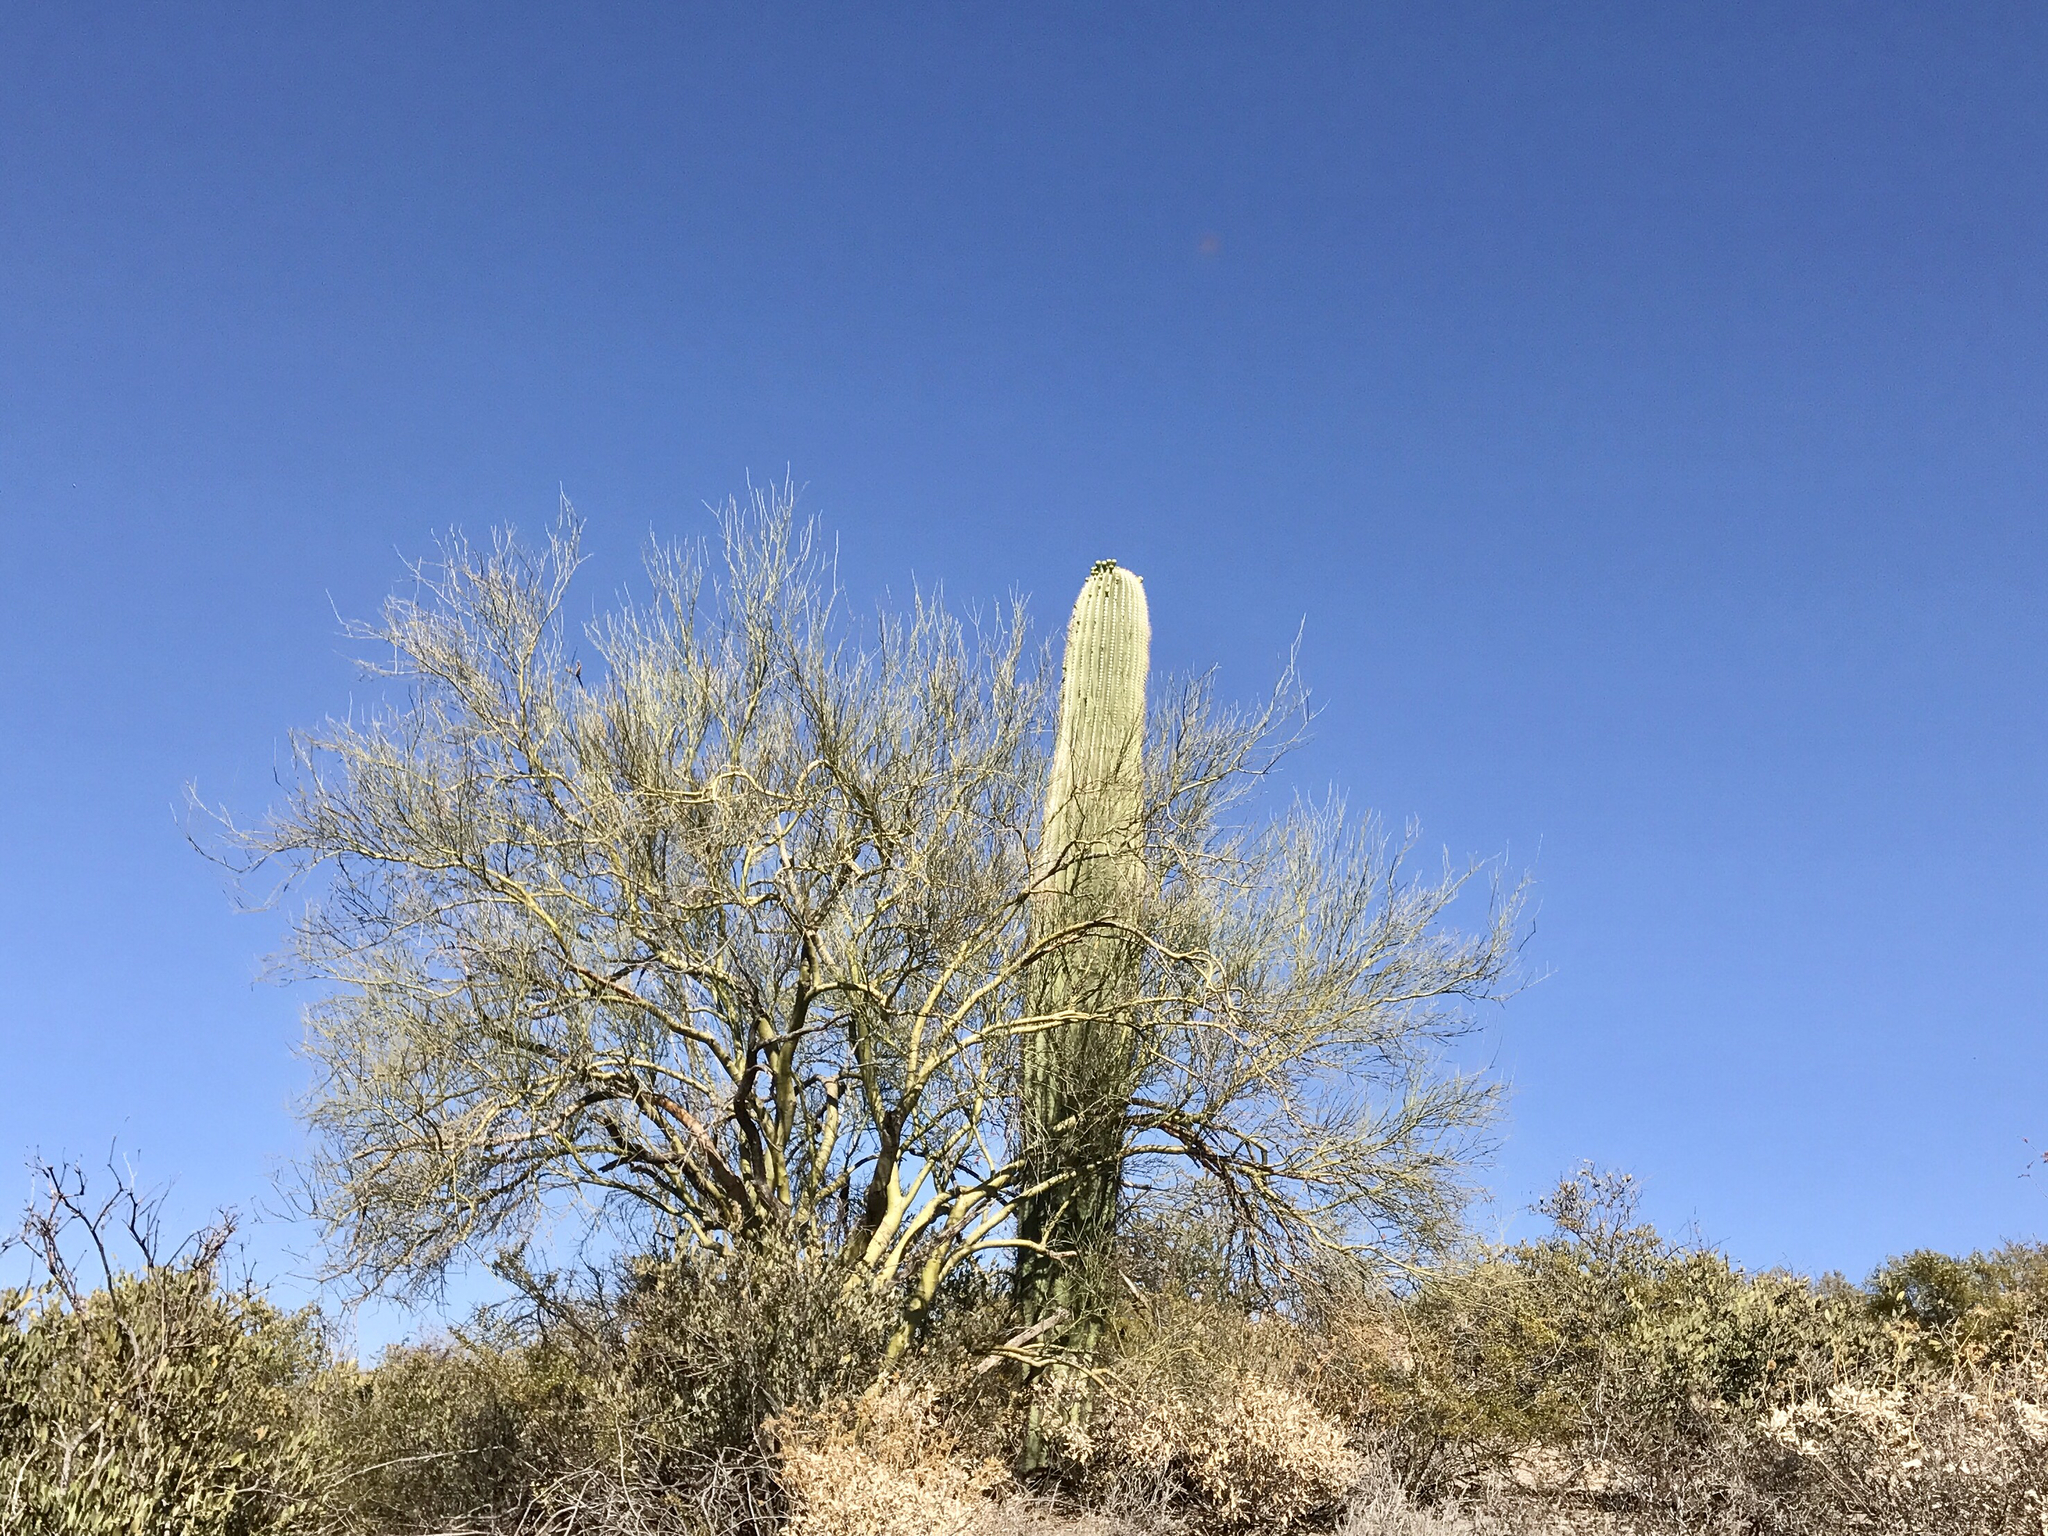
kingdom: Plantae
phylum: Tracheophyta
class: Magnoliopsida
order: Fabales
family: Fabaceae
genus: Parkinsonia
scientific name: Parkinsonia microphylla
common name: Yellow paloverde
